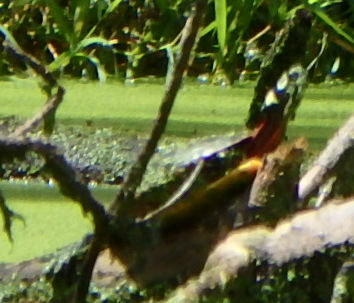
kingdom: Animalia
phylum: Chordata
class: Testudines
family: Emydidae
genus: Chrysemys
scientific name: Chrysemys picta
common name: Painted turtle
